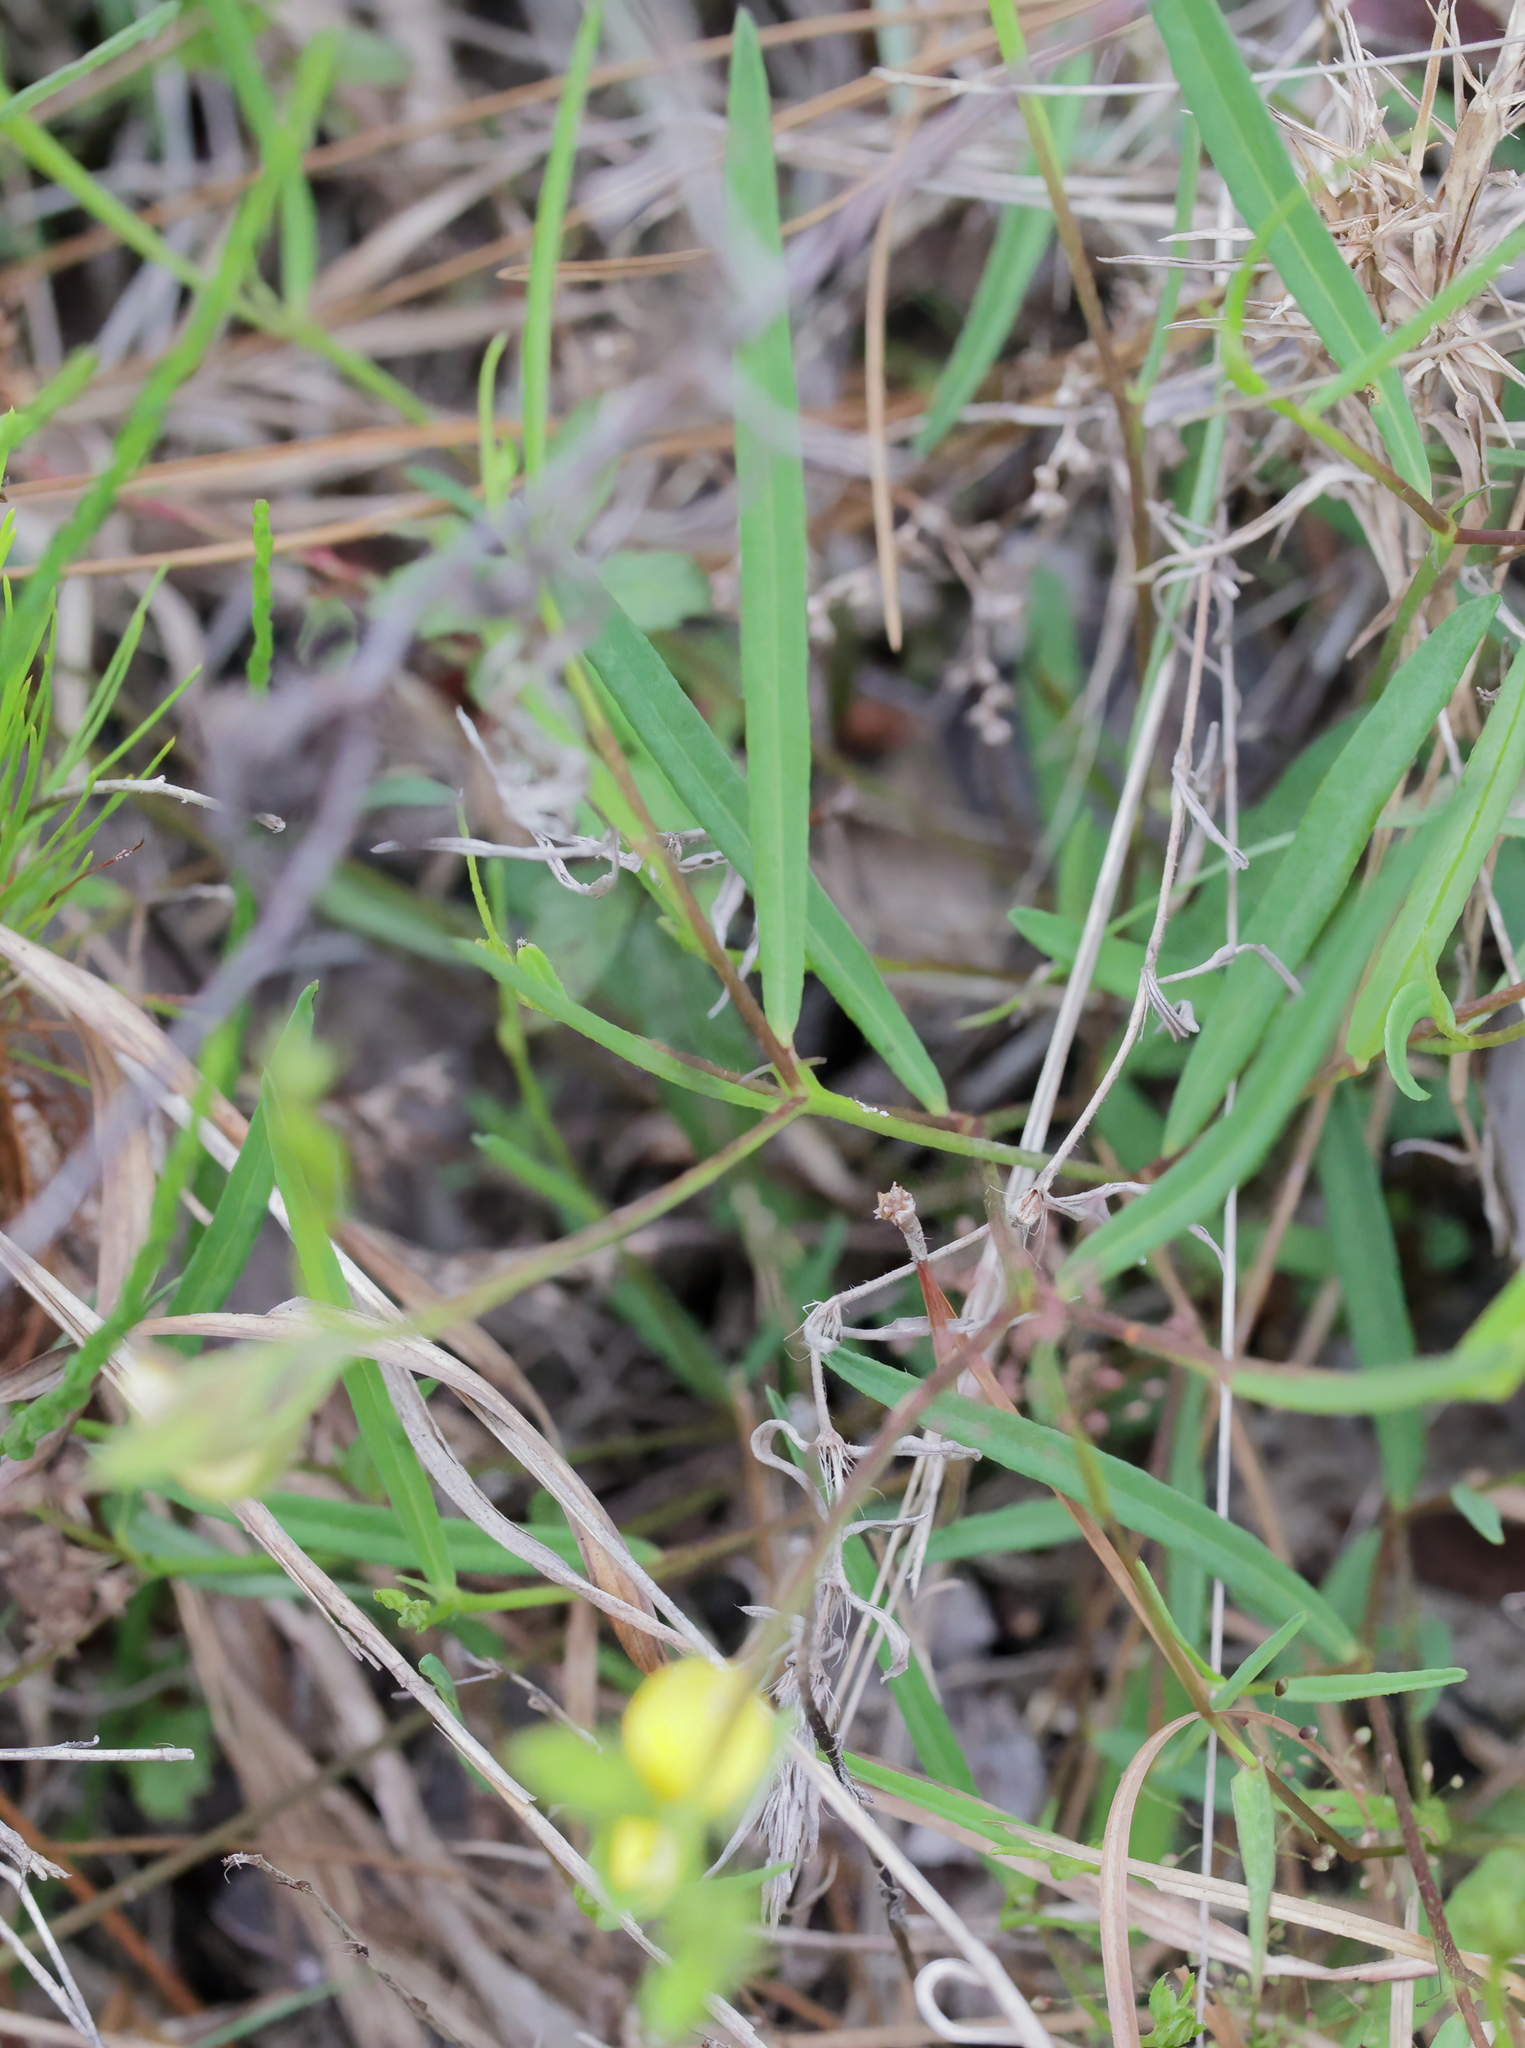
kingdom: Plantae
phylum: Tracheophyta
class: Magnoliopsida
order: Fabales
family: Fabaceae
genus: Crotalaria
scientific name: Crotalaria purshii
